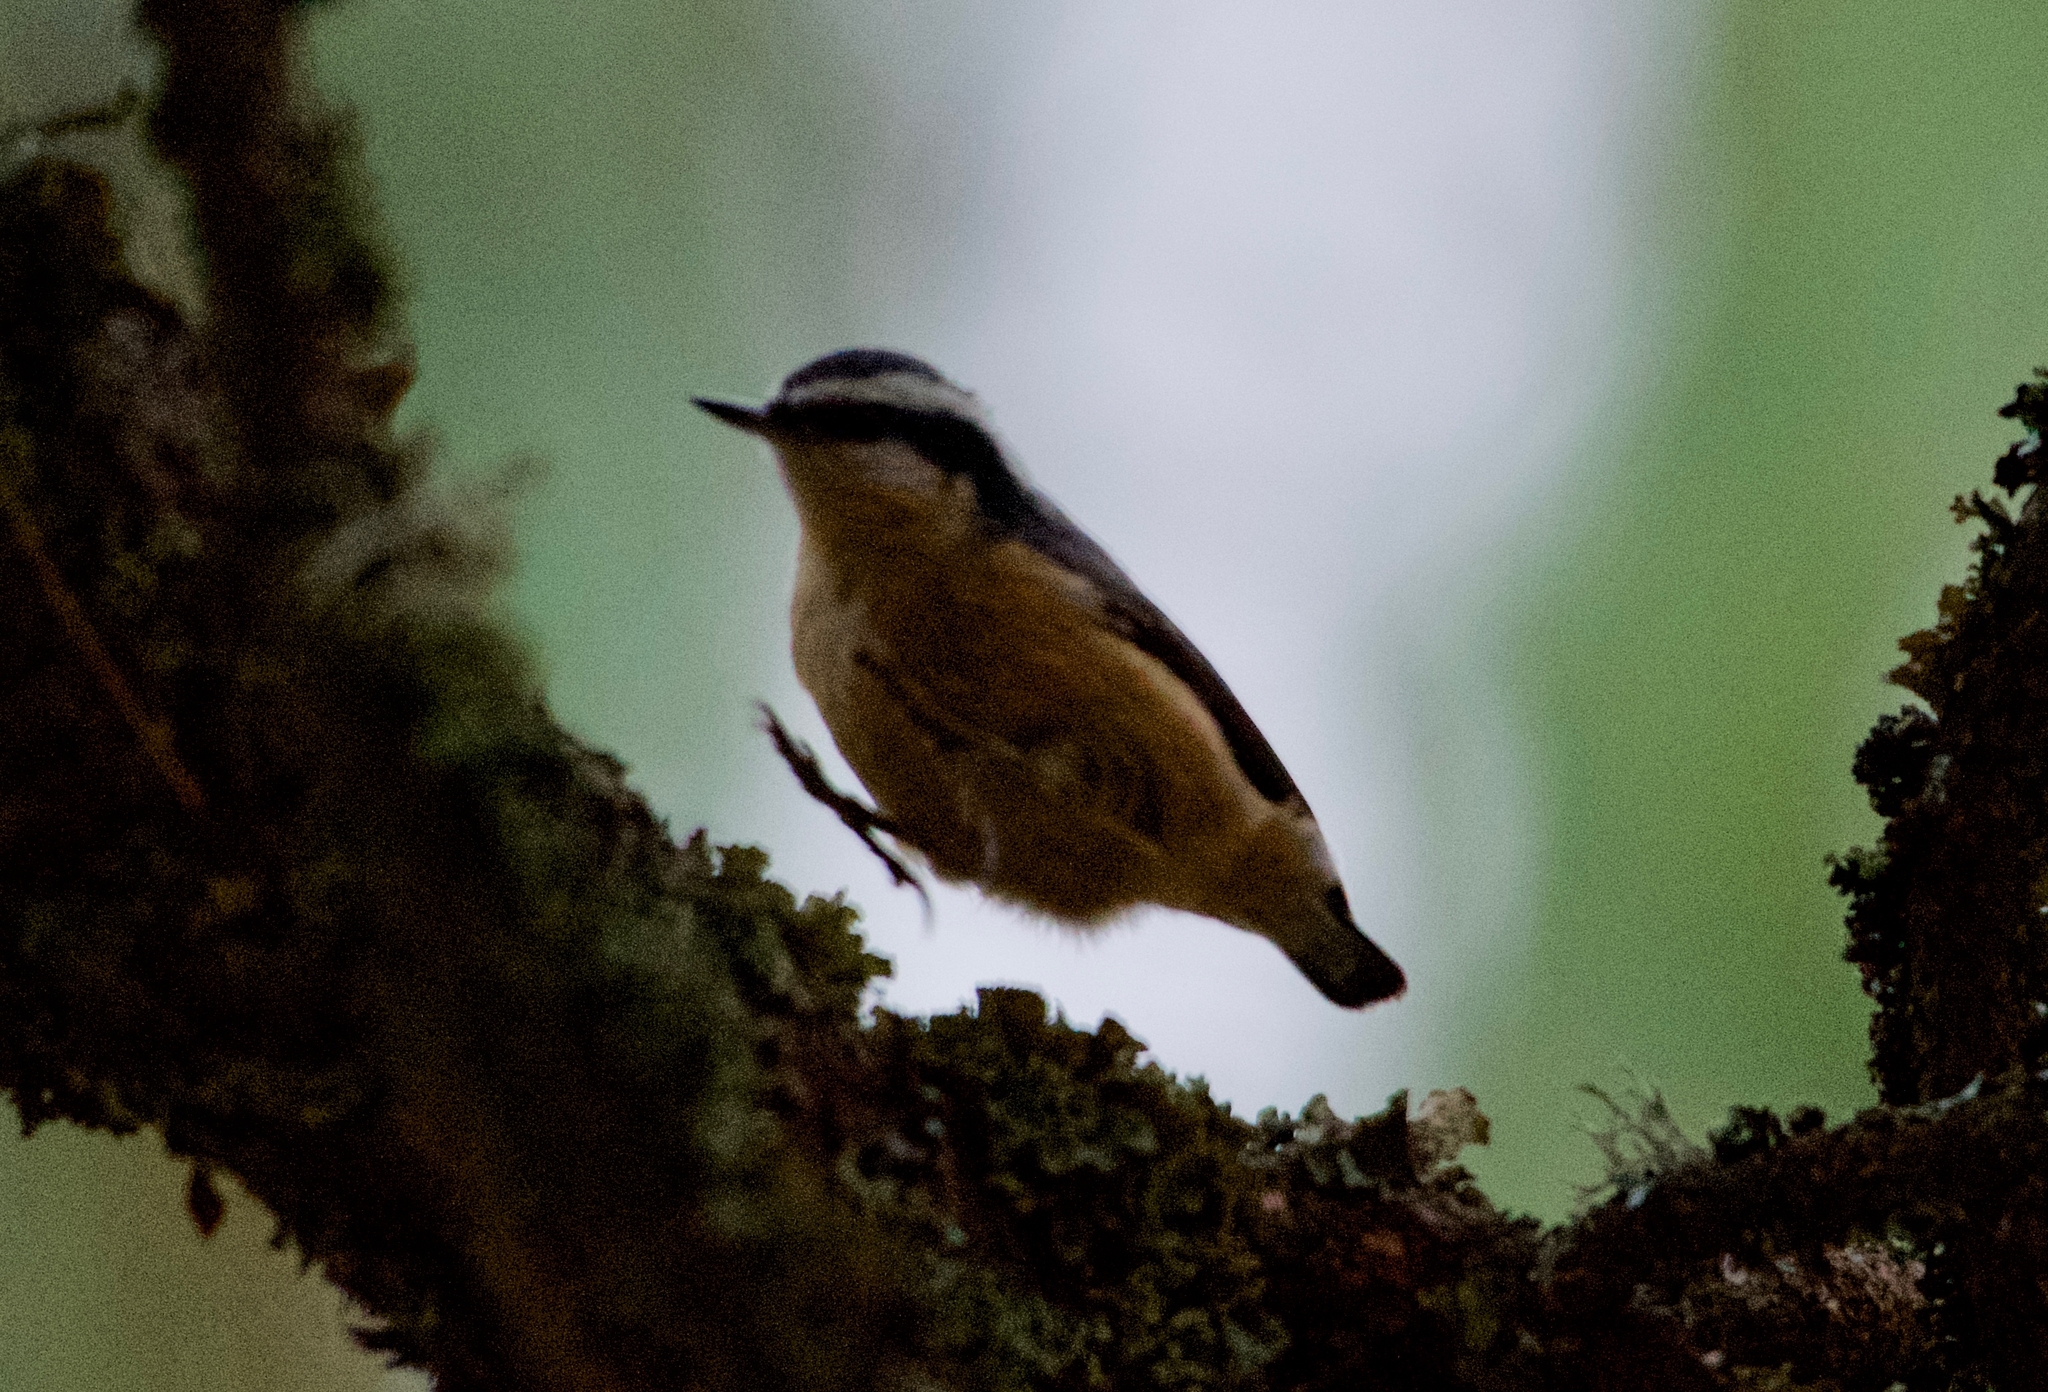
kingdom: Animalia
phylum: Chordata
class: Aves
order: Passeriformes
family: Sittidae
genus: Sitta
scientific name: Sitta canadensis
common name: Red-breasted nuthatch
